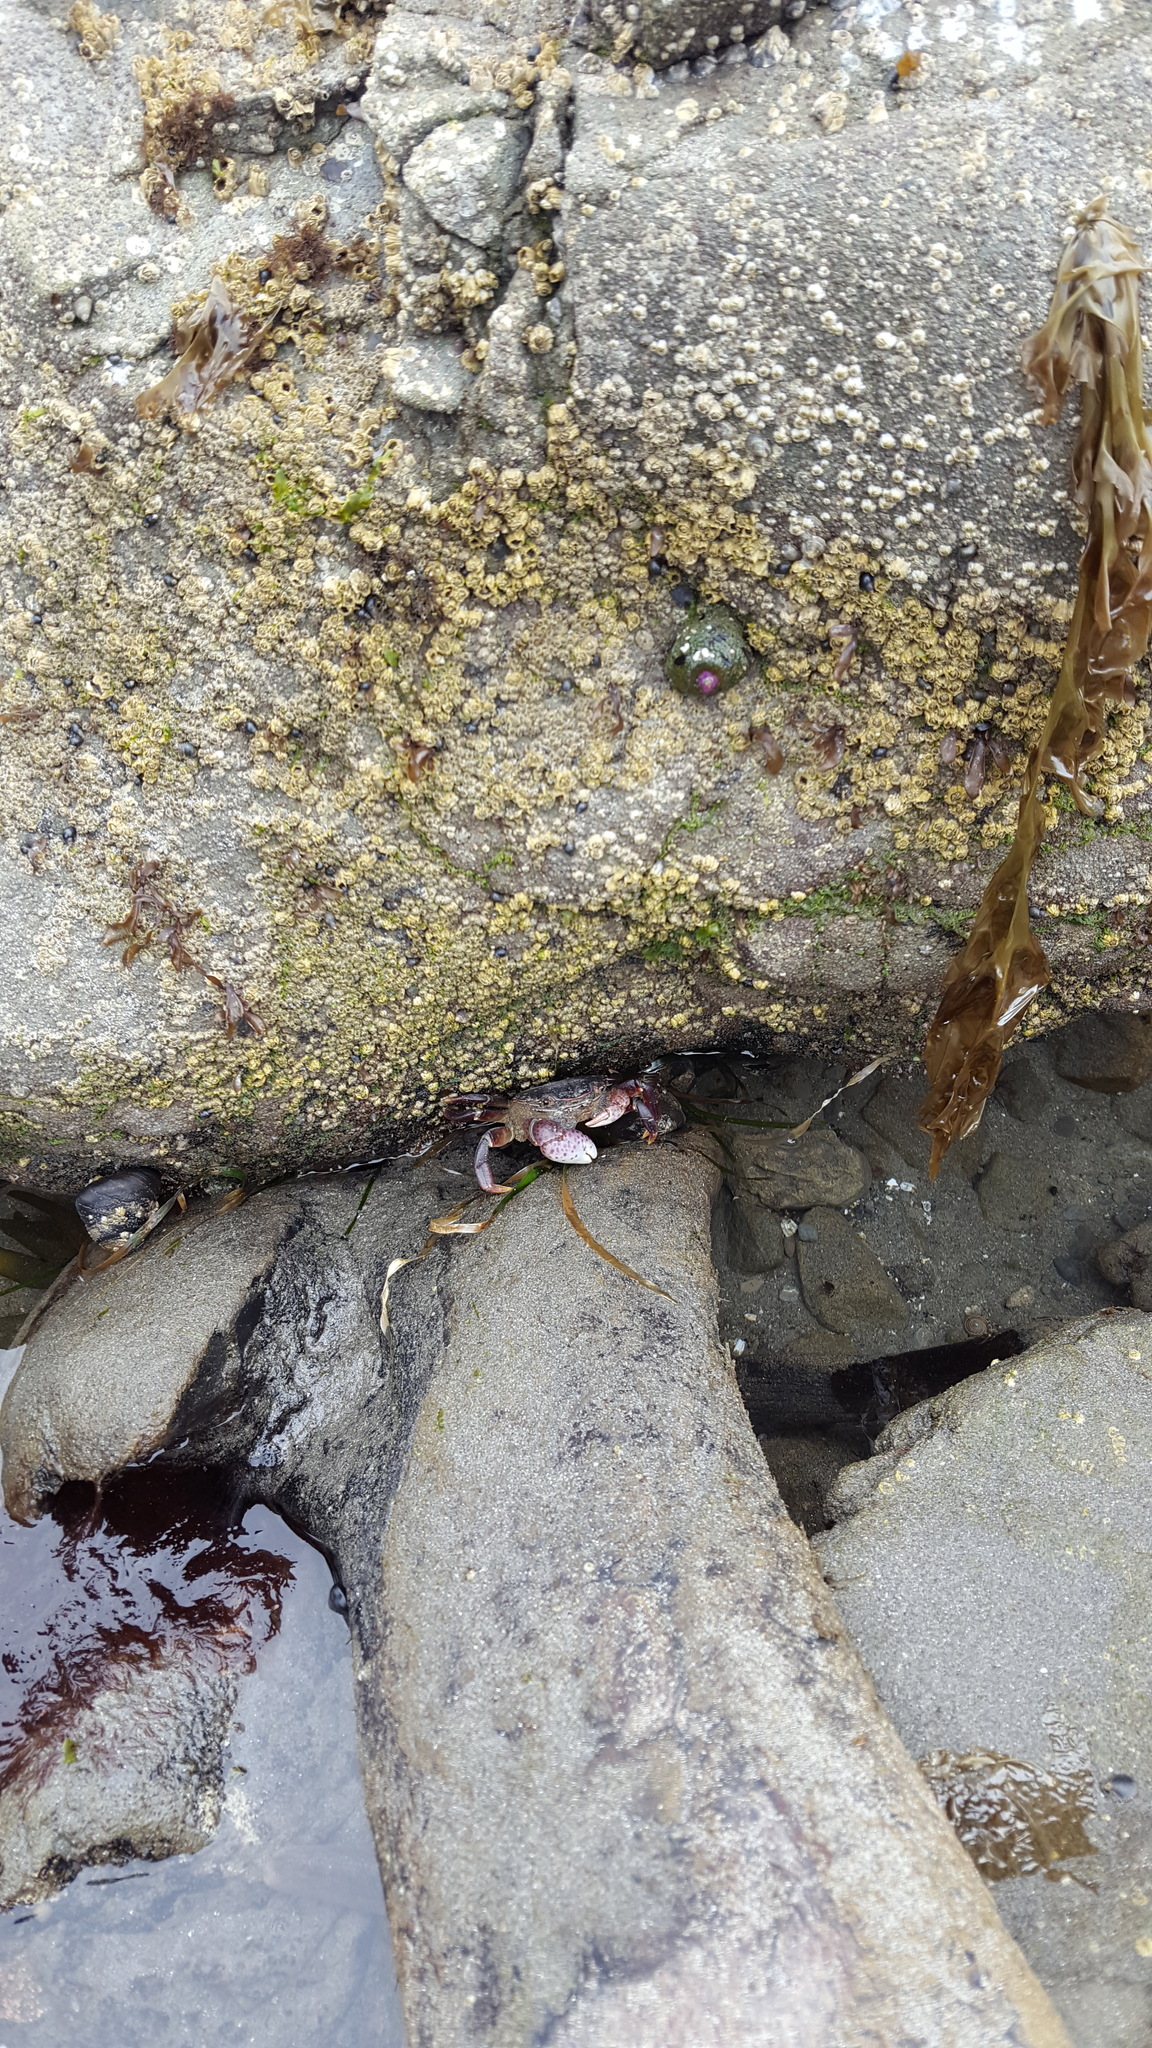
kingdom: Animalia
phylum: Arthropoda
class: Malacostraca
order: Decapoda
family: Varunidae
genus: Hemigrapsus
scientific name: Hemigrapsus nudus
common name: Purple shore crab
